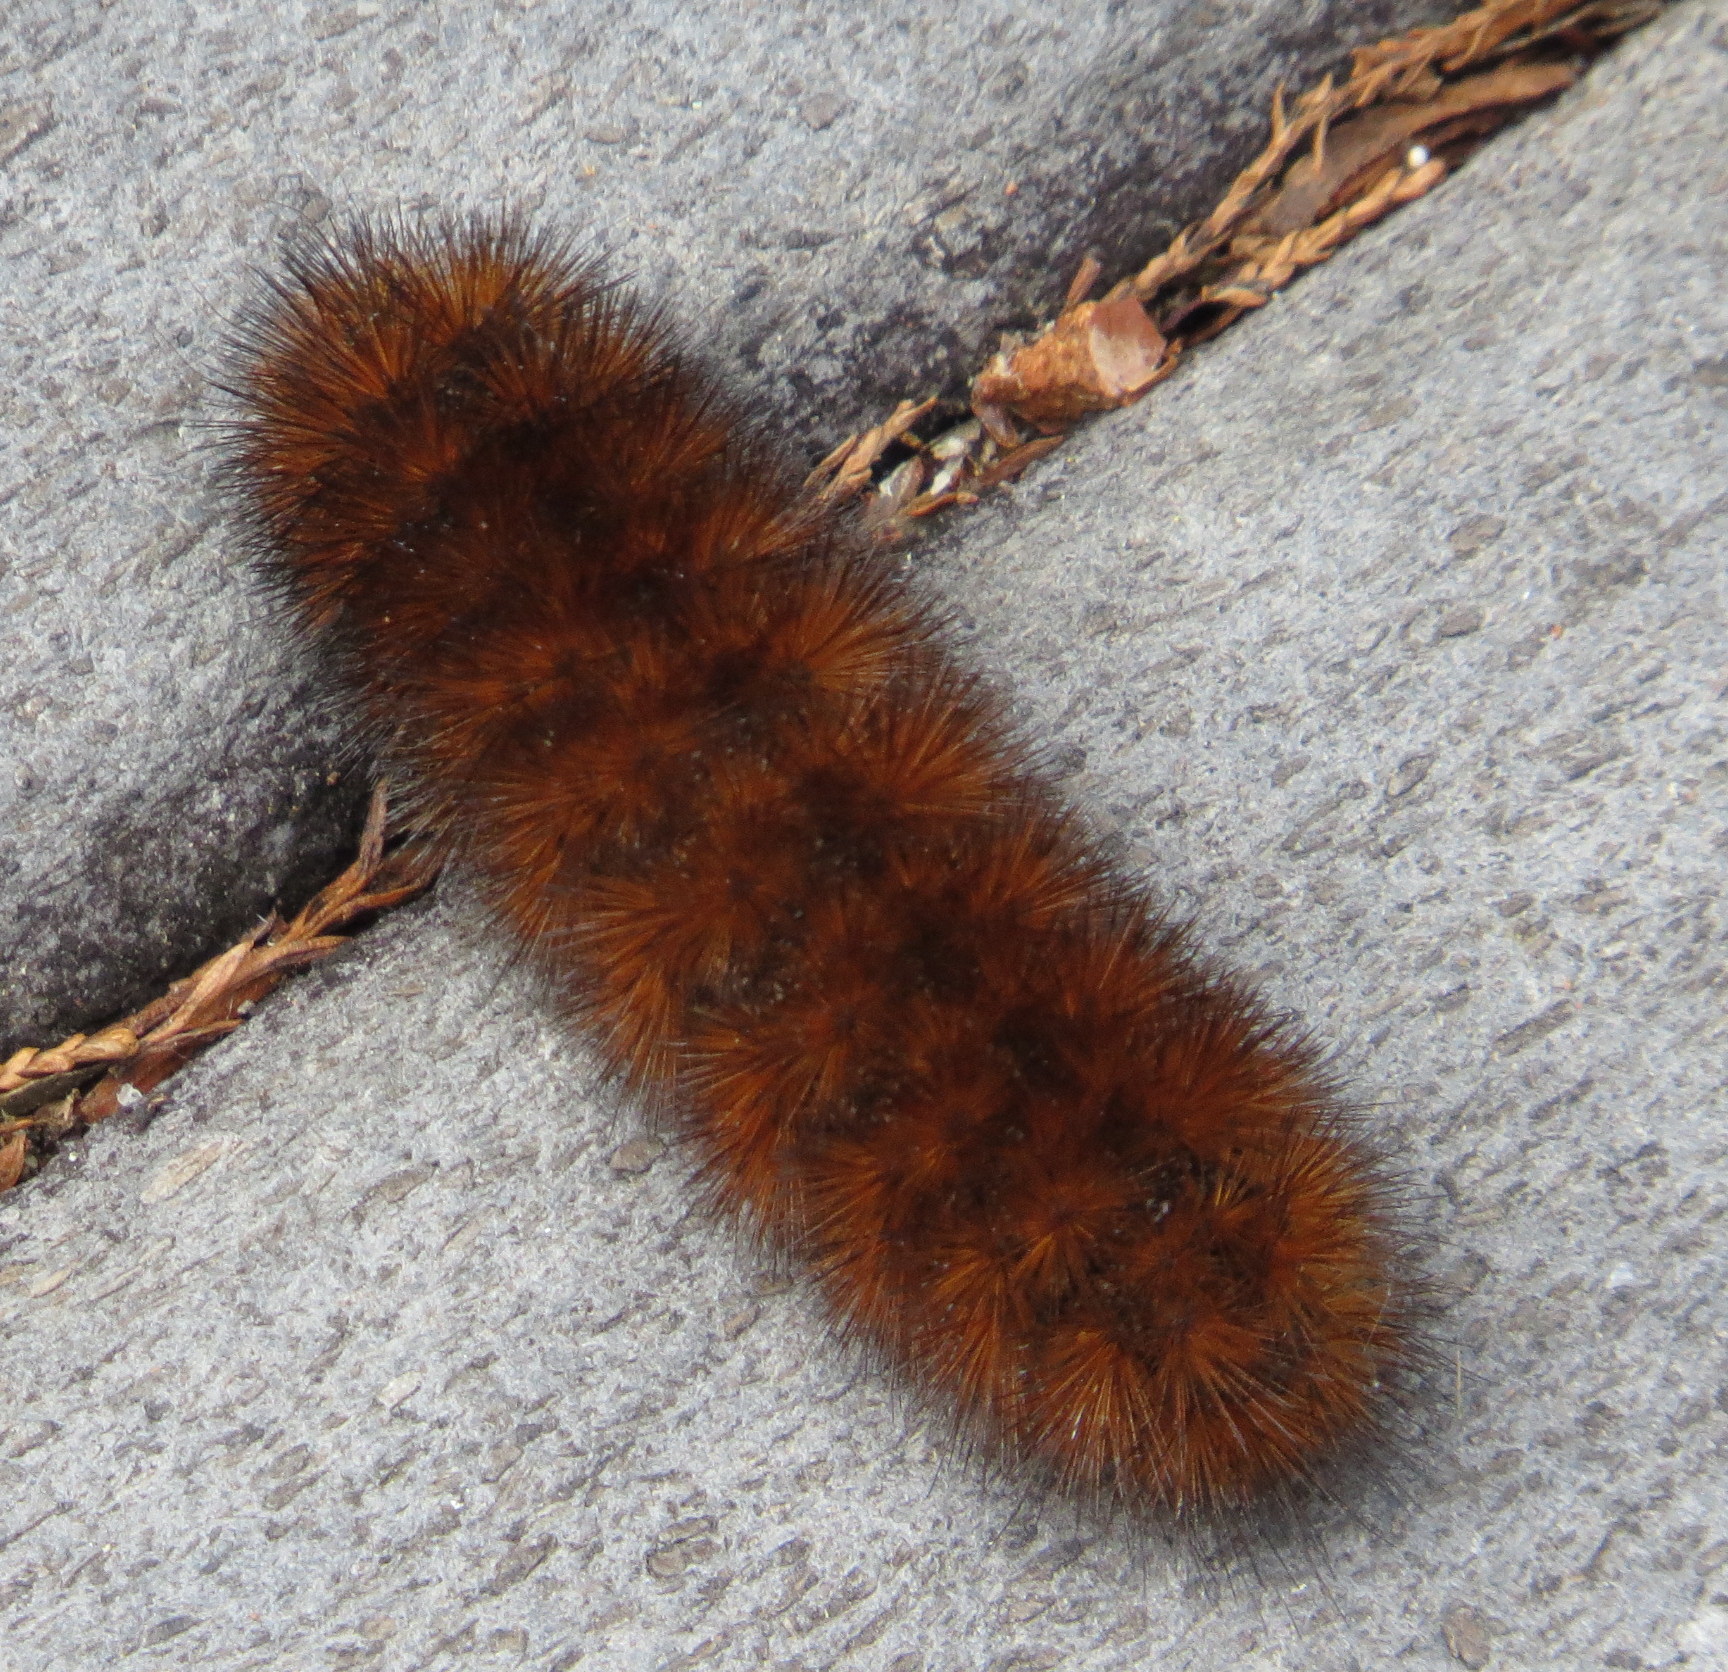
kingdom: Animalia
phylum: Arthropoda
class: Insecta
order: Lepidoptera
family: Erebidae
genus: Pyrrharctia
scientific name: Pyrrharctia isabella
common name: Isabella tiger moth
